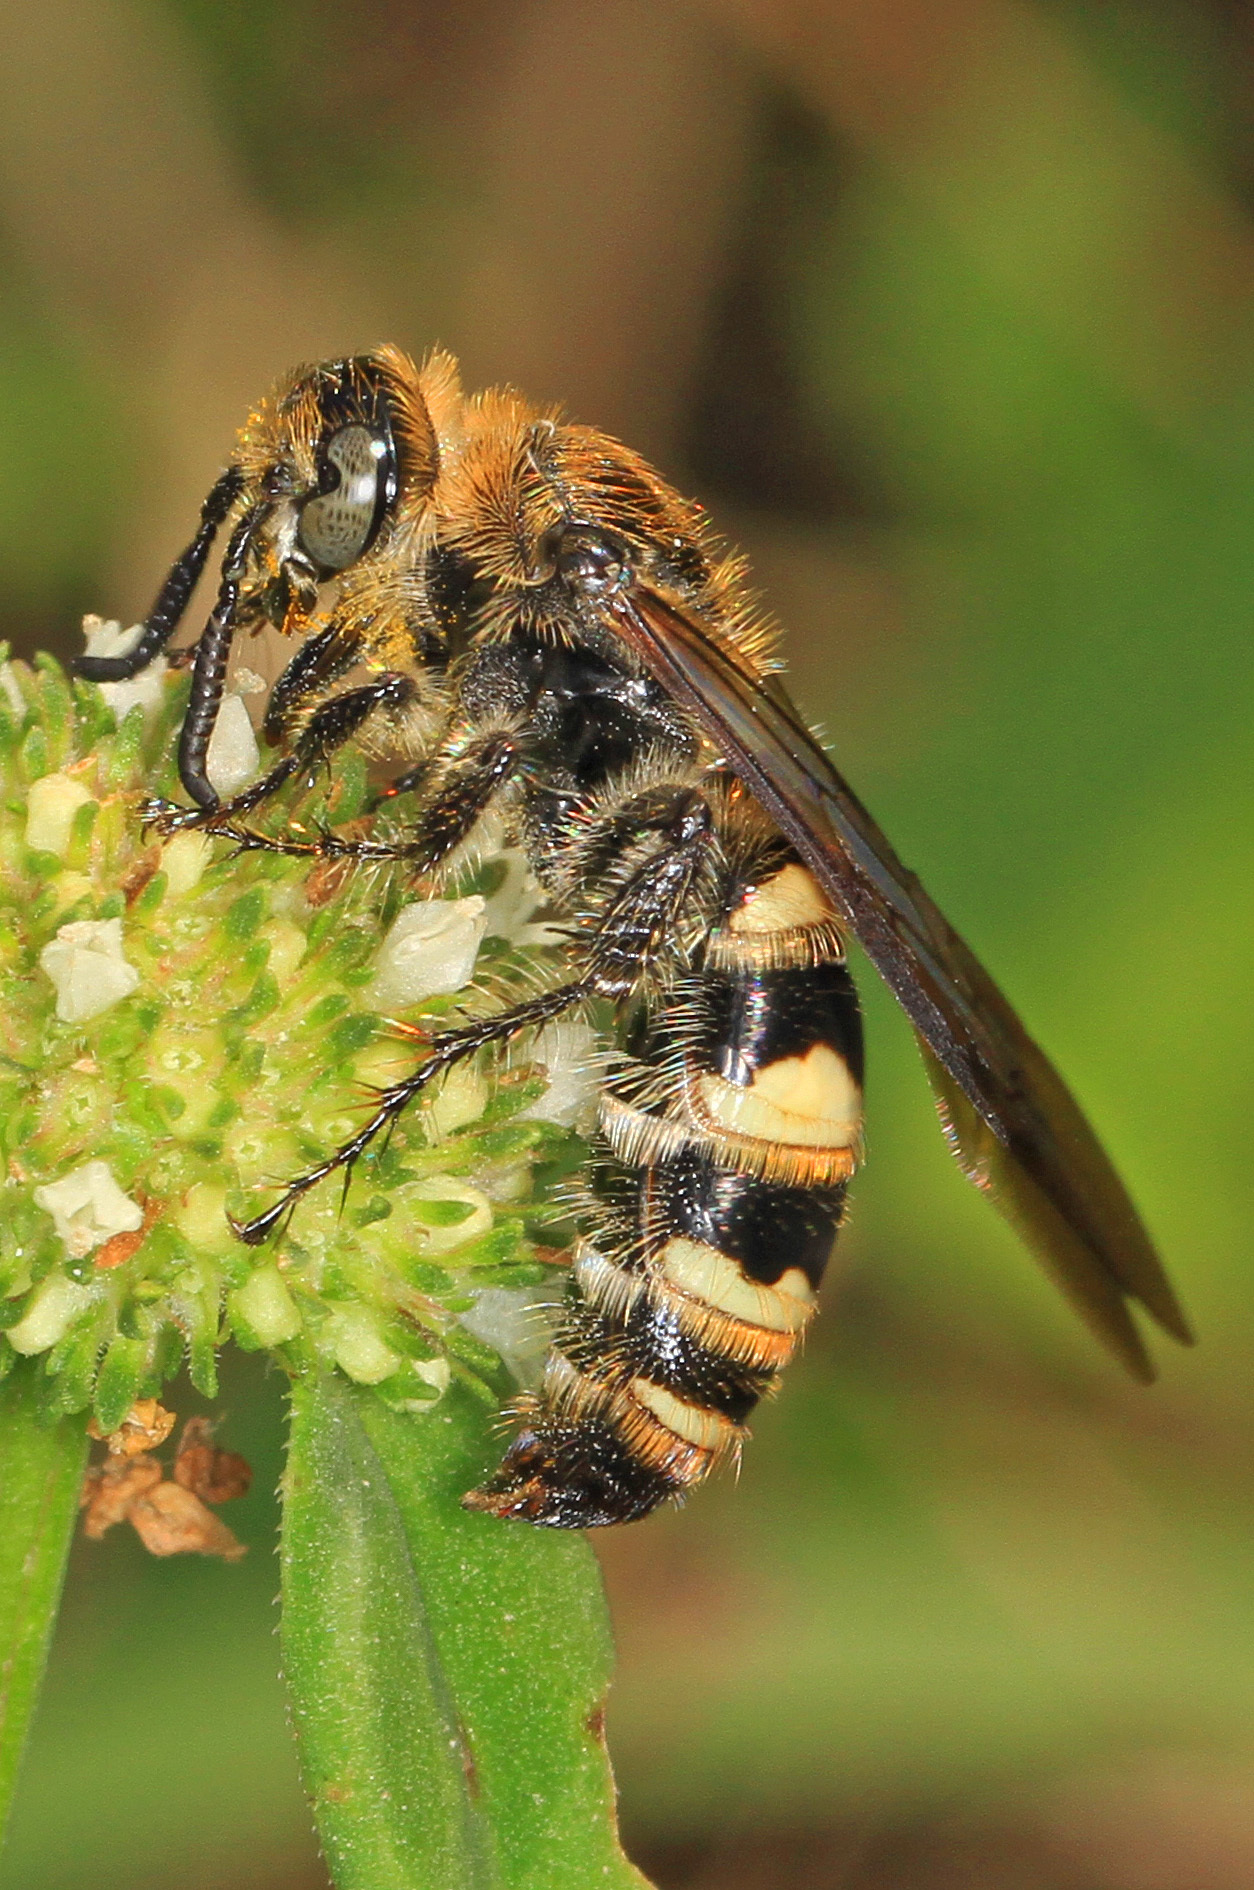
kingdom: Animalia
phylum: Arthropoda
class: Insecta
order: Hymenoptera
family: Scoliidae
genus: Dielis
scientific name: Dielis
